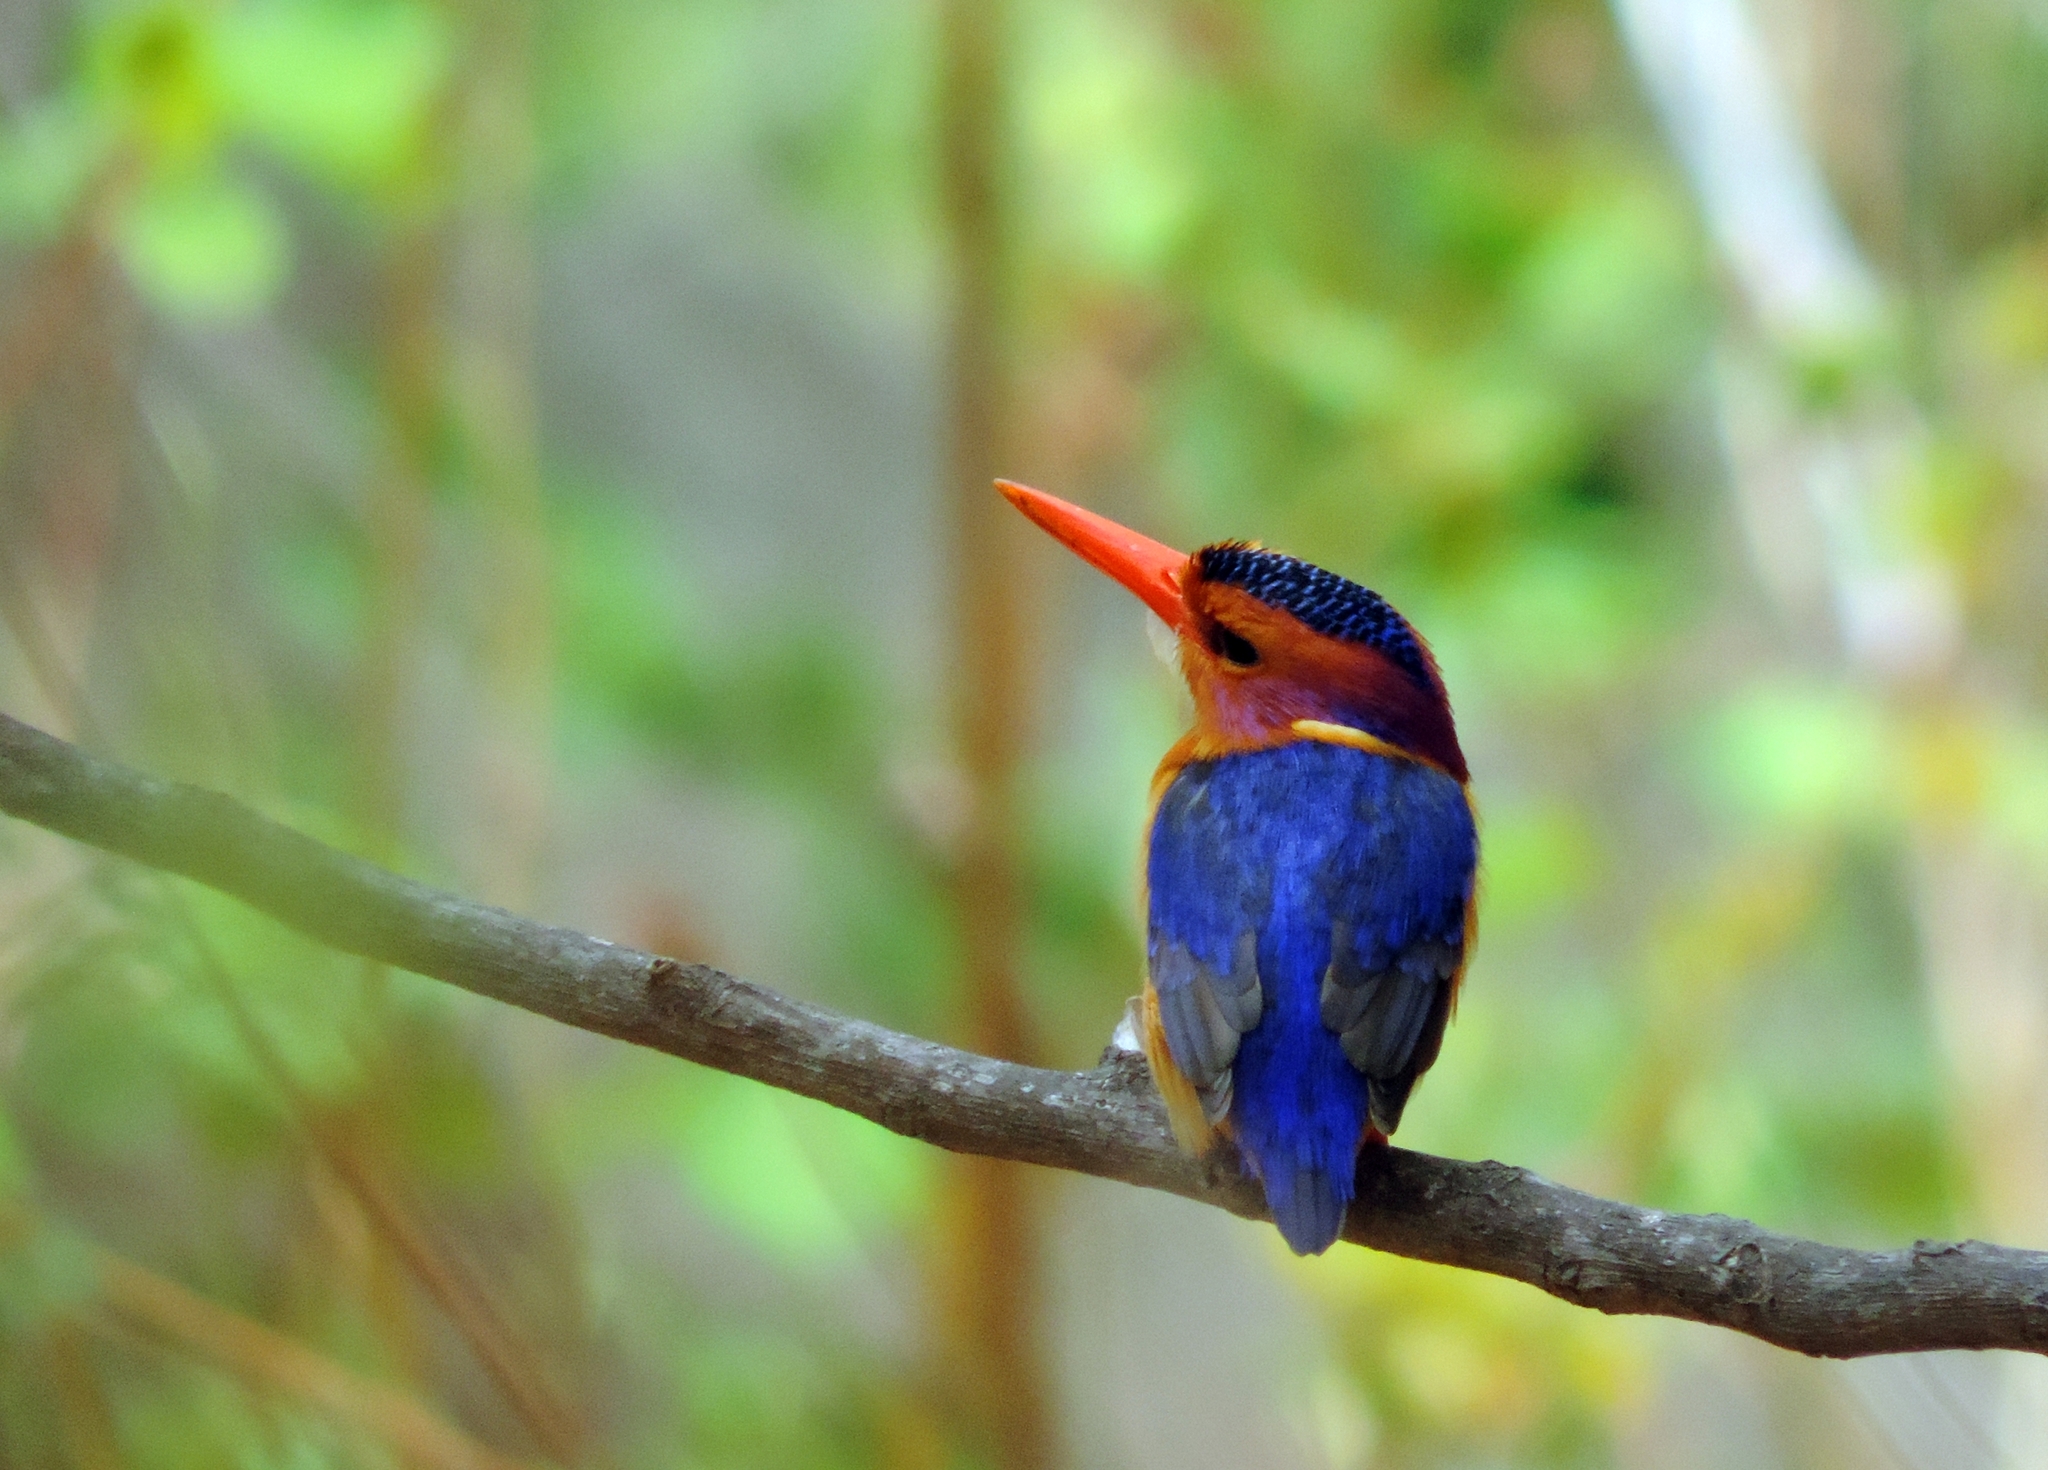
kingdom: Animalia
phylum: Chordata
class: Aves
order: Coraciiformes
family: Alcedinidae
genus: Ispidina
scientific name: Ispidina picta
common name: African pygmy-kingfisher
